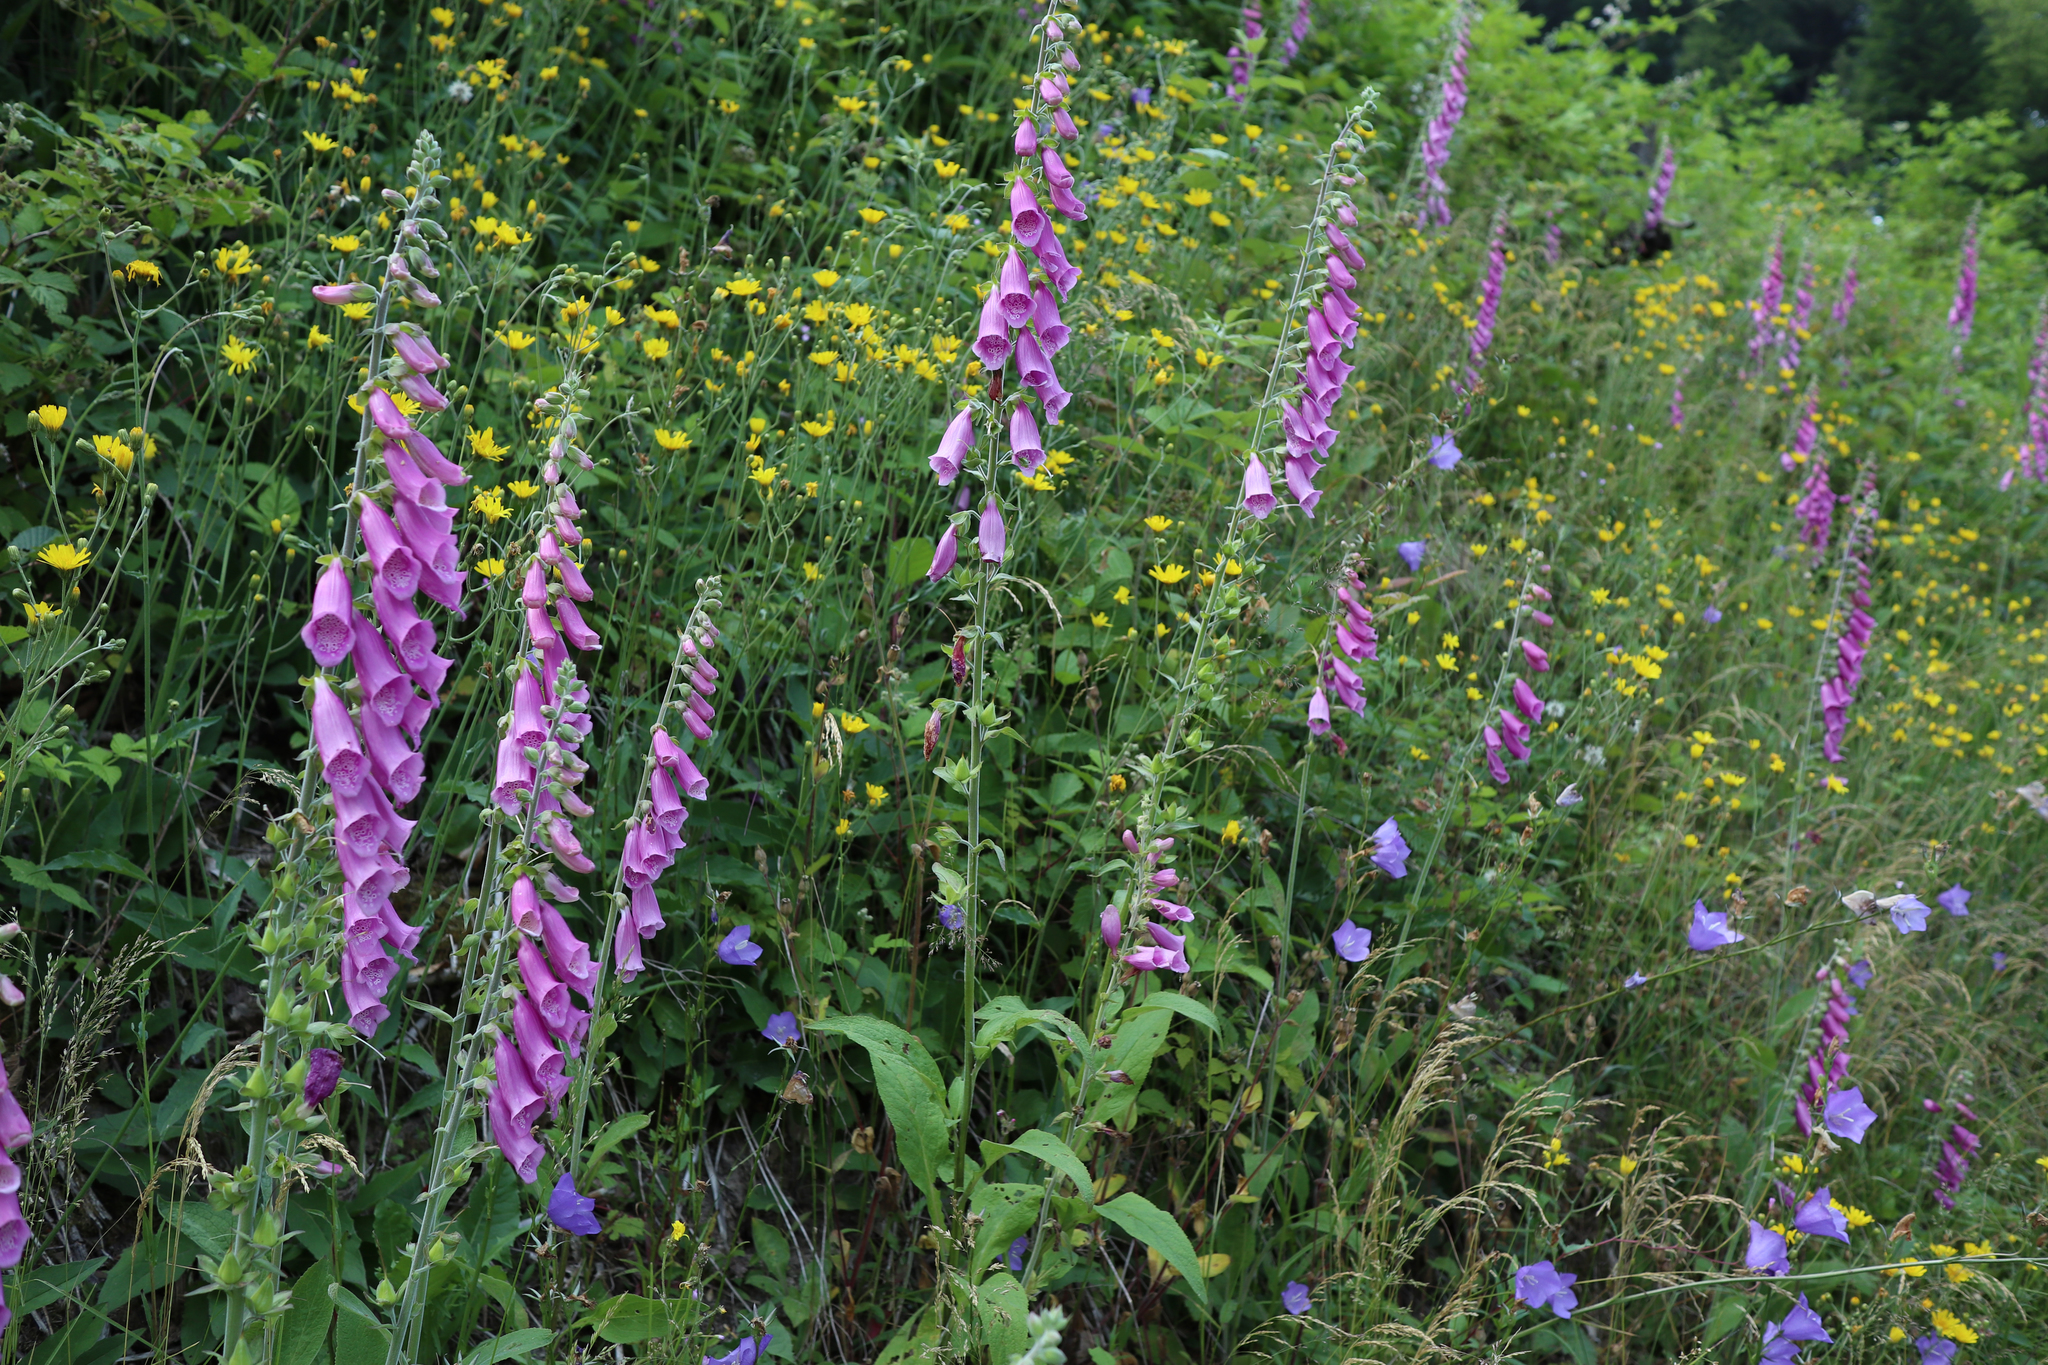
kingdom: Plantae
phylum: Tracheophyta
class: Magnoliopsida
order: Lamiales
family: Plantaginaceae
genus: Digitalis
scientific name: Digitalis purpurea
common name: Foxglove
